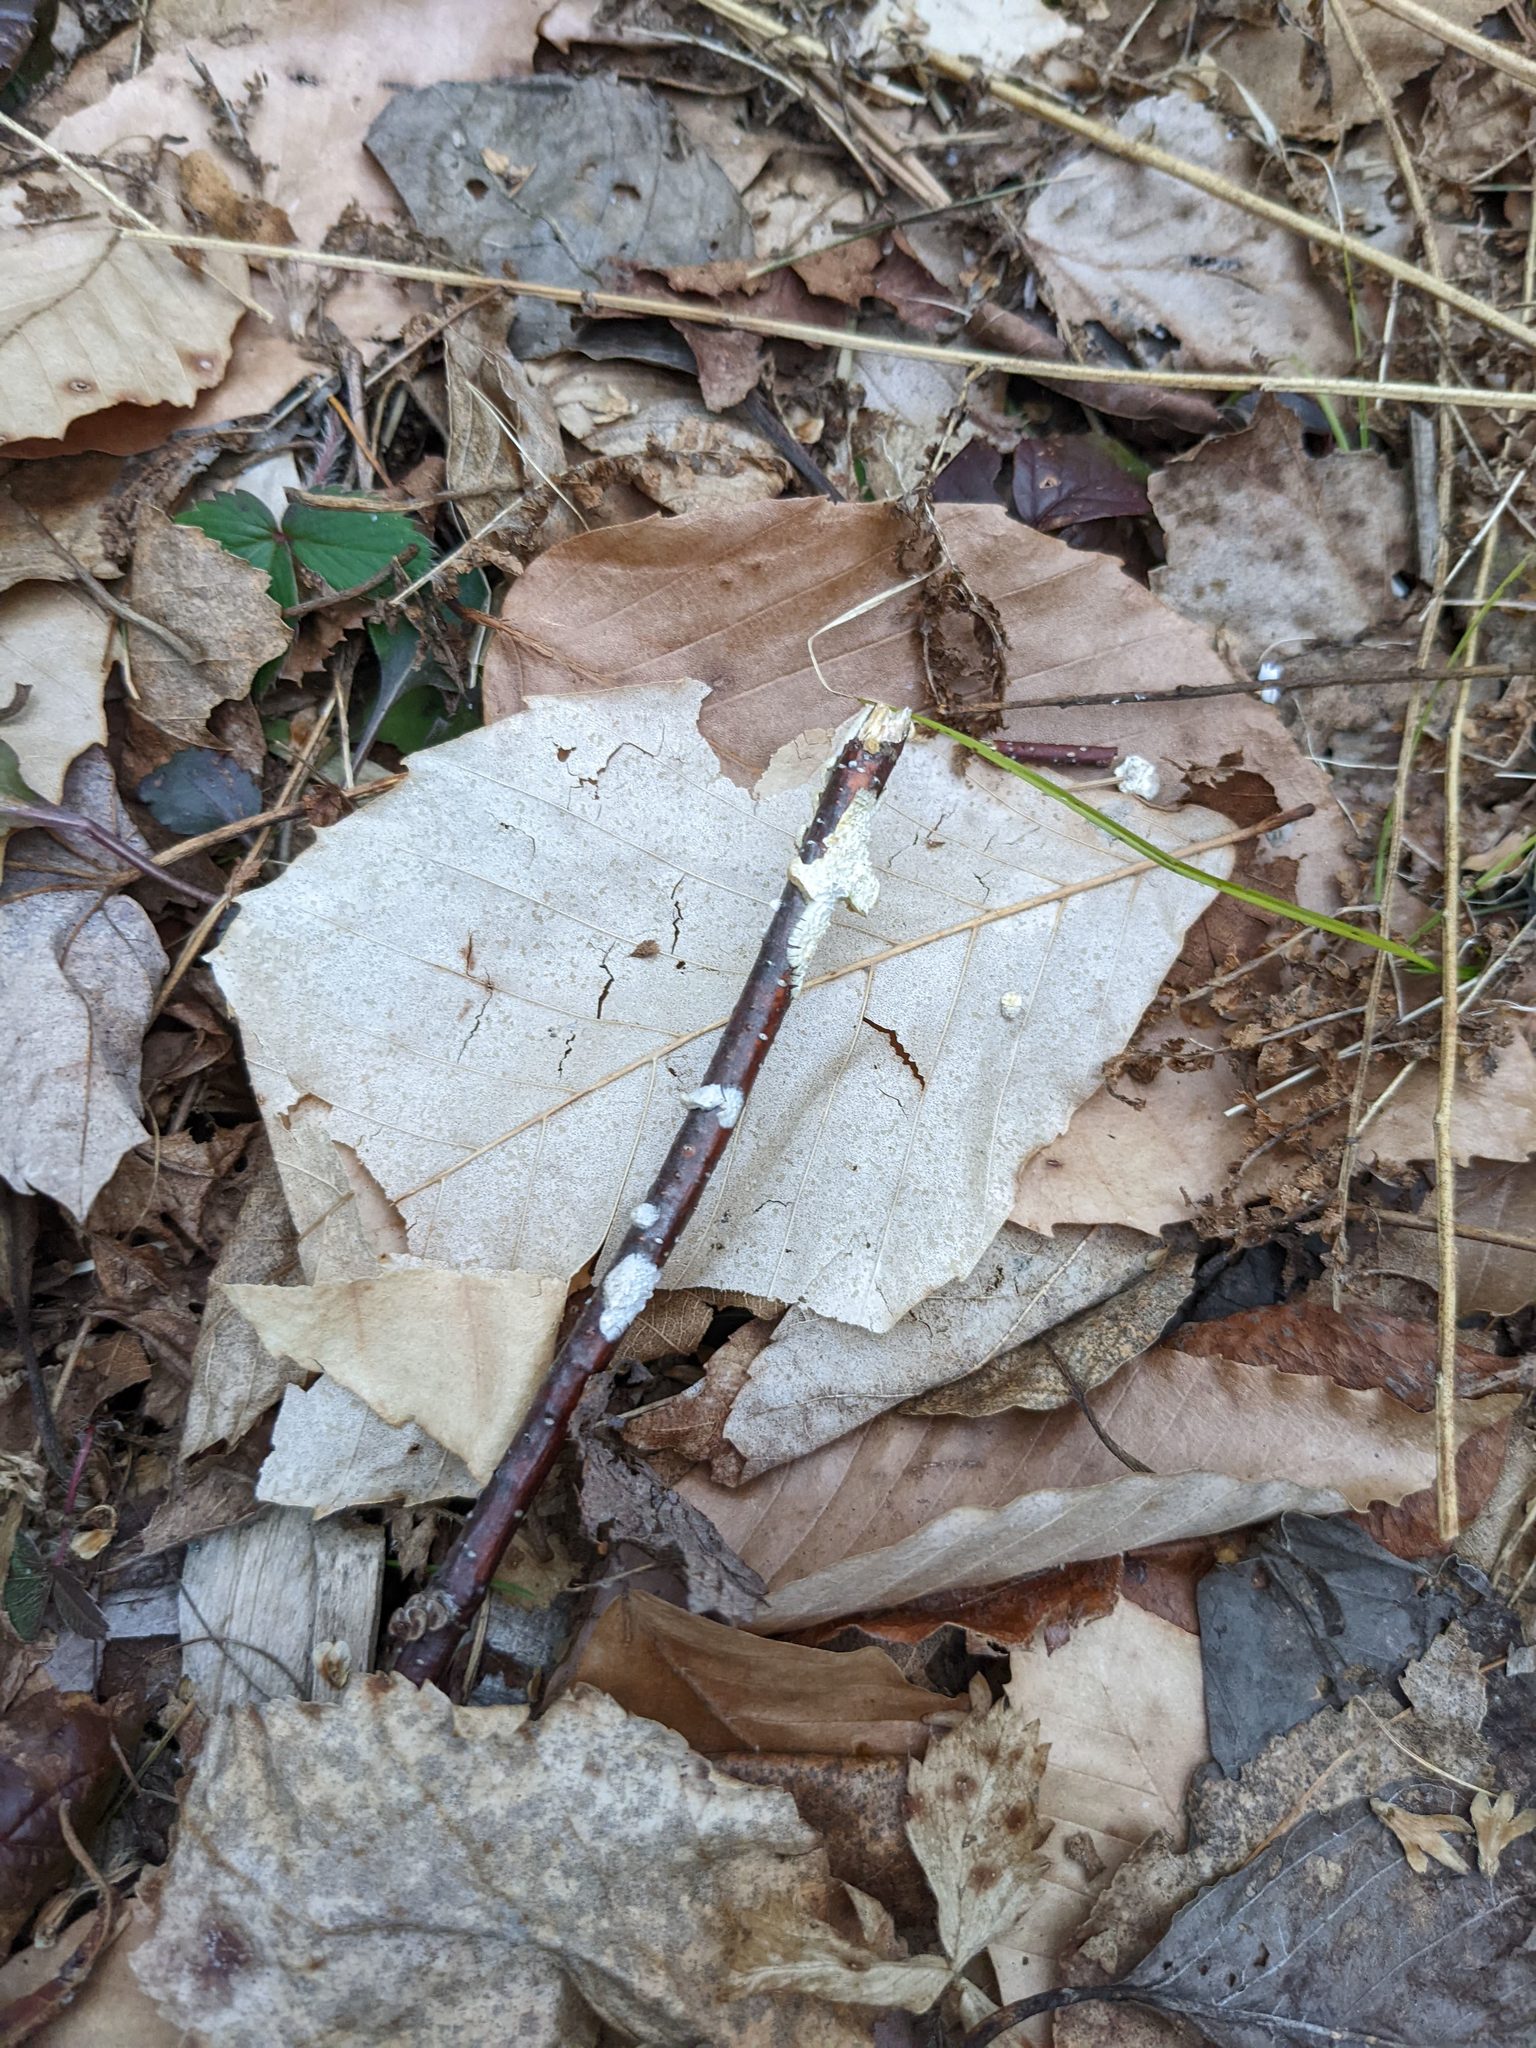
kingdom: Plantae
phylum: Tracheophyta
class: Magnoliopsida
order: Fagales
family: Fagaceae
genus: Fagus
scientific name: Fagus grandifolia
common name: American beech
